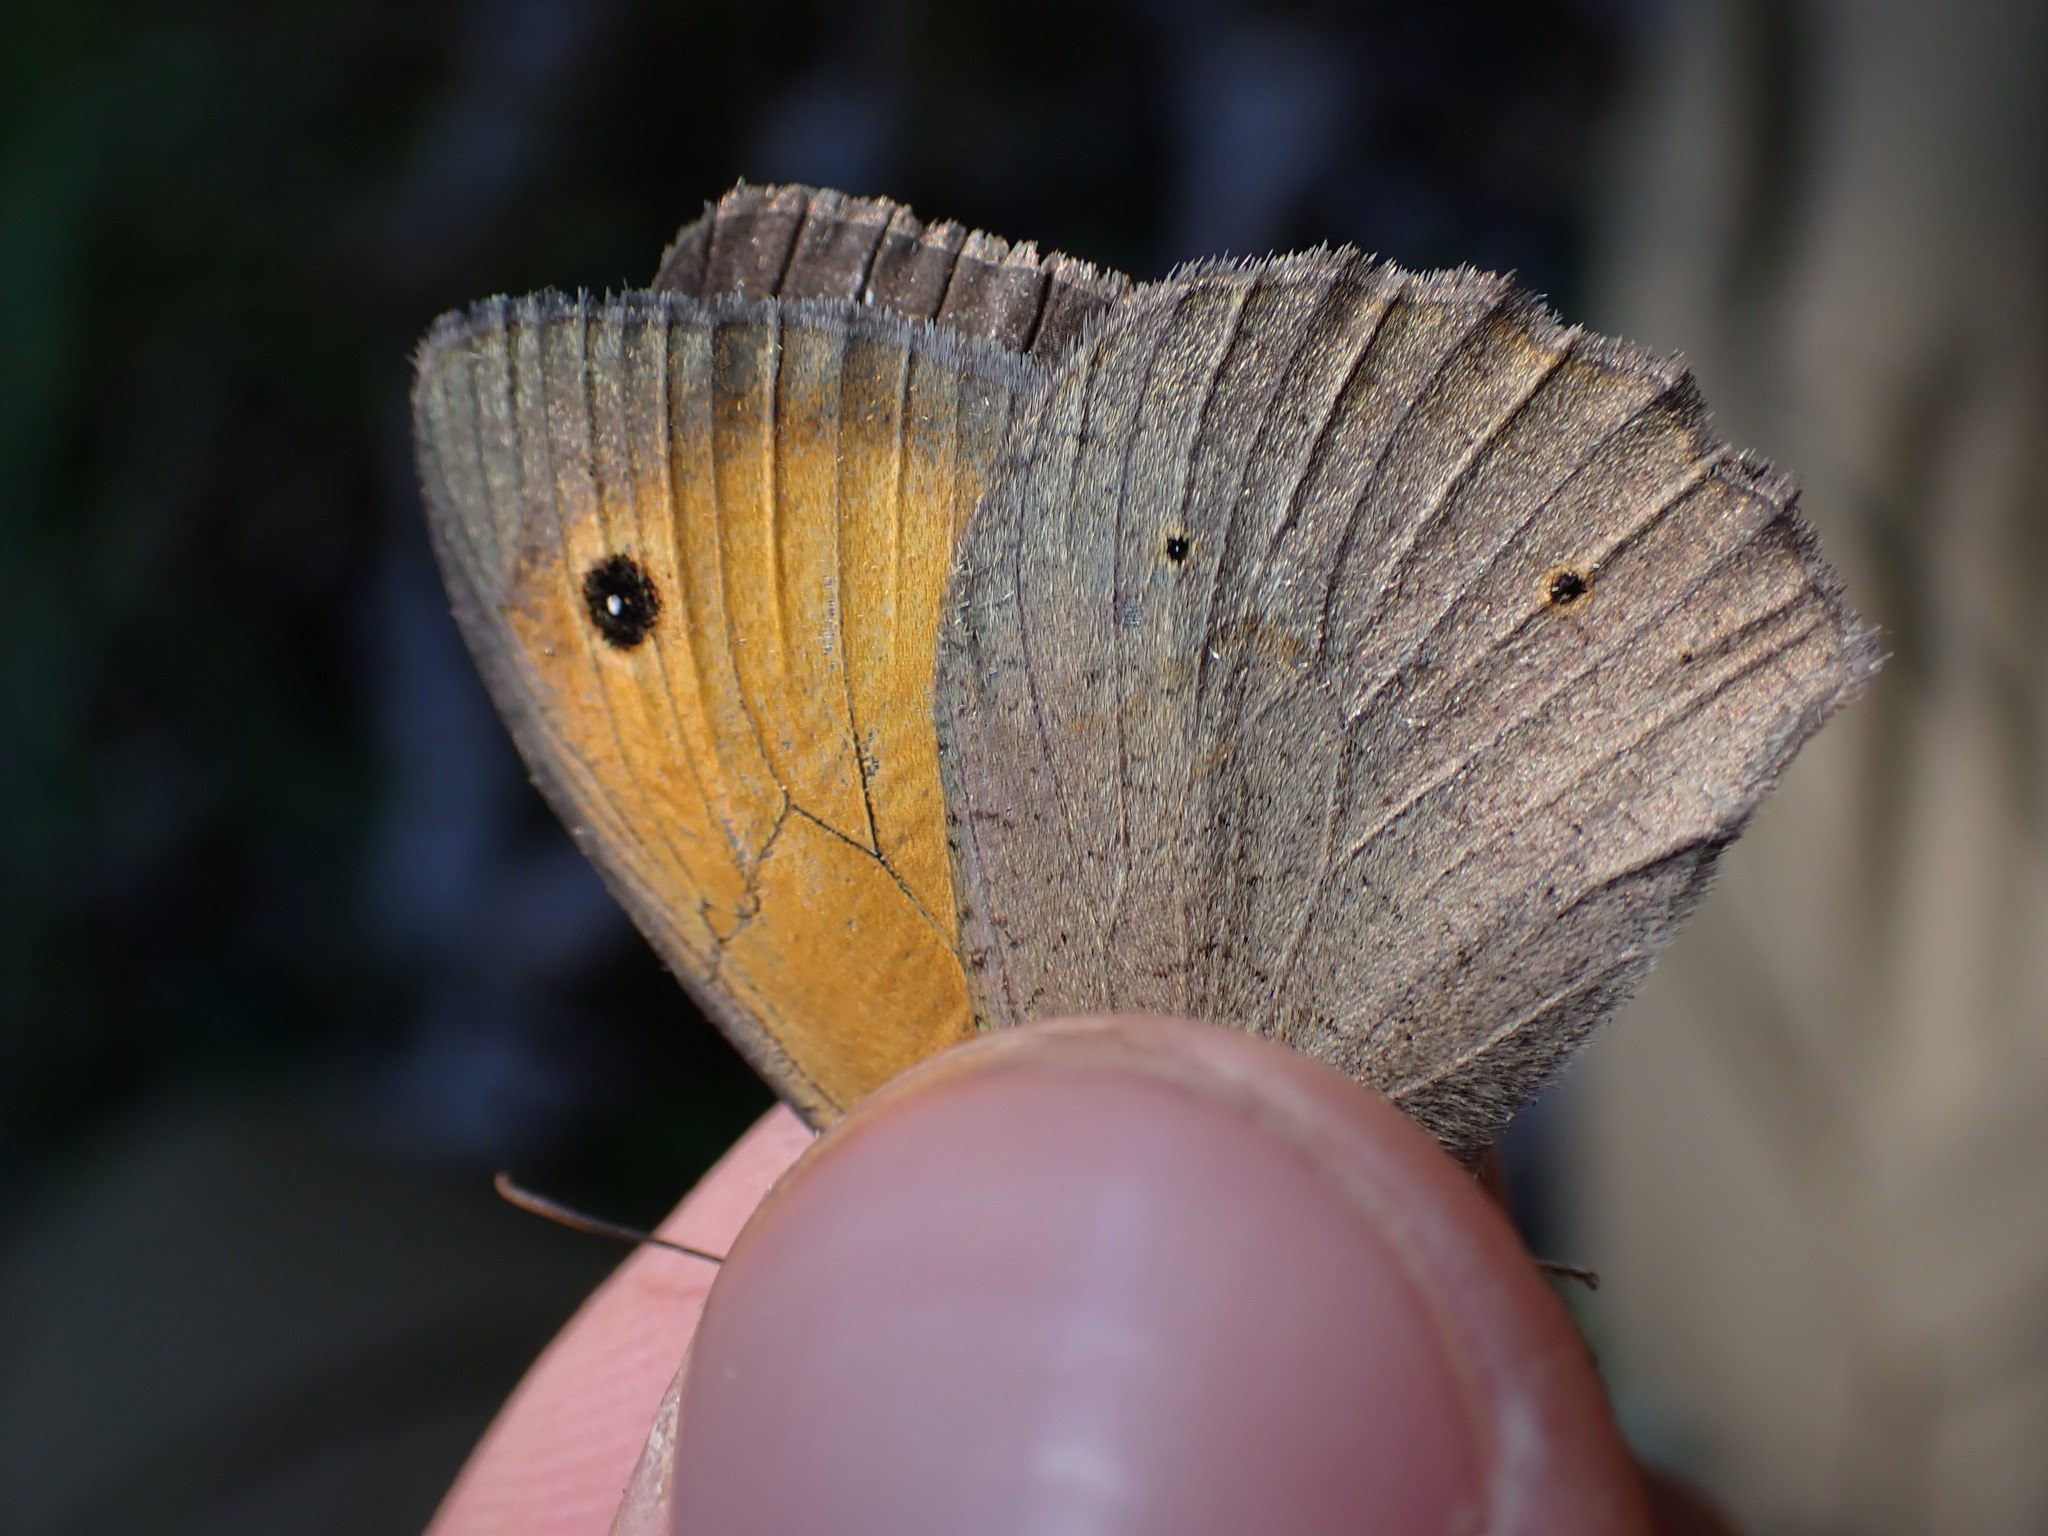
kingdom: Animalia
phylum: Arthropoda
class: Insecta
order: Lepidoptera
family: Nymphalidae
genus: Maniola
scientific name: Maniola jurtina
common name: Meadow brown
